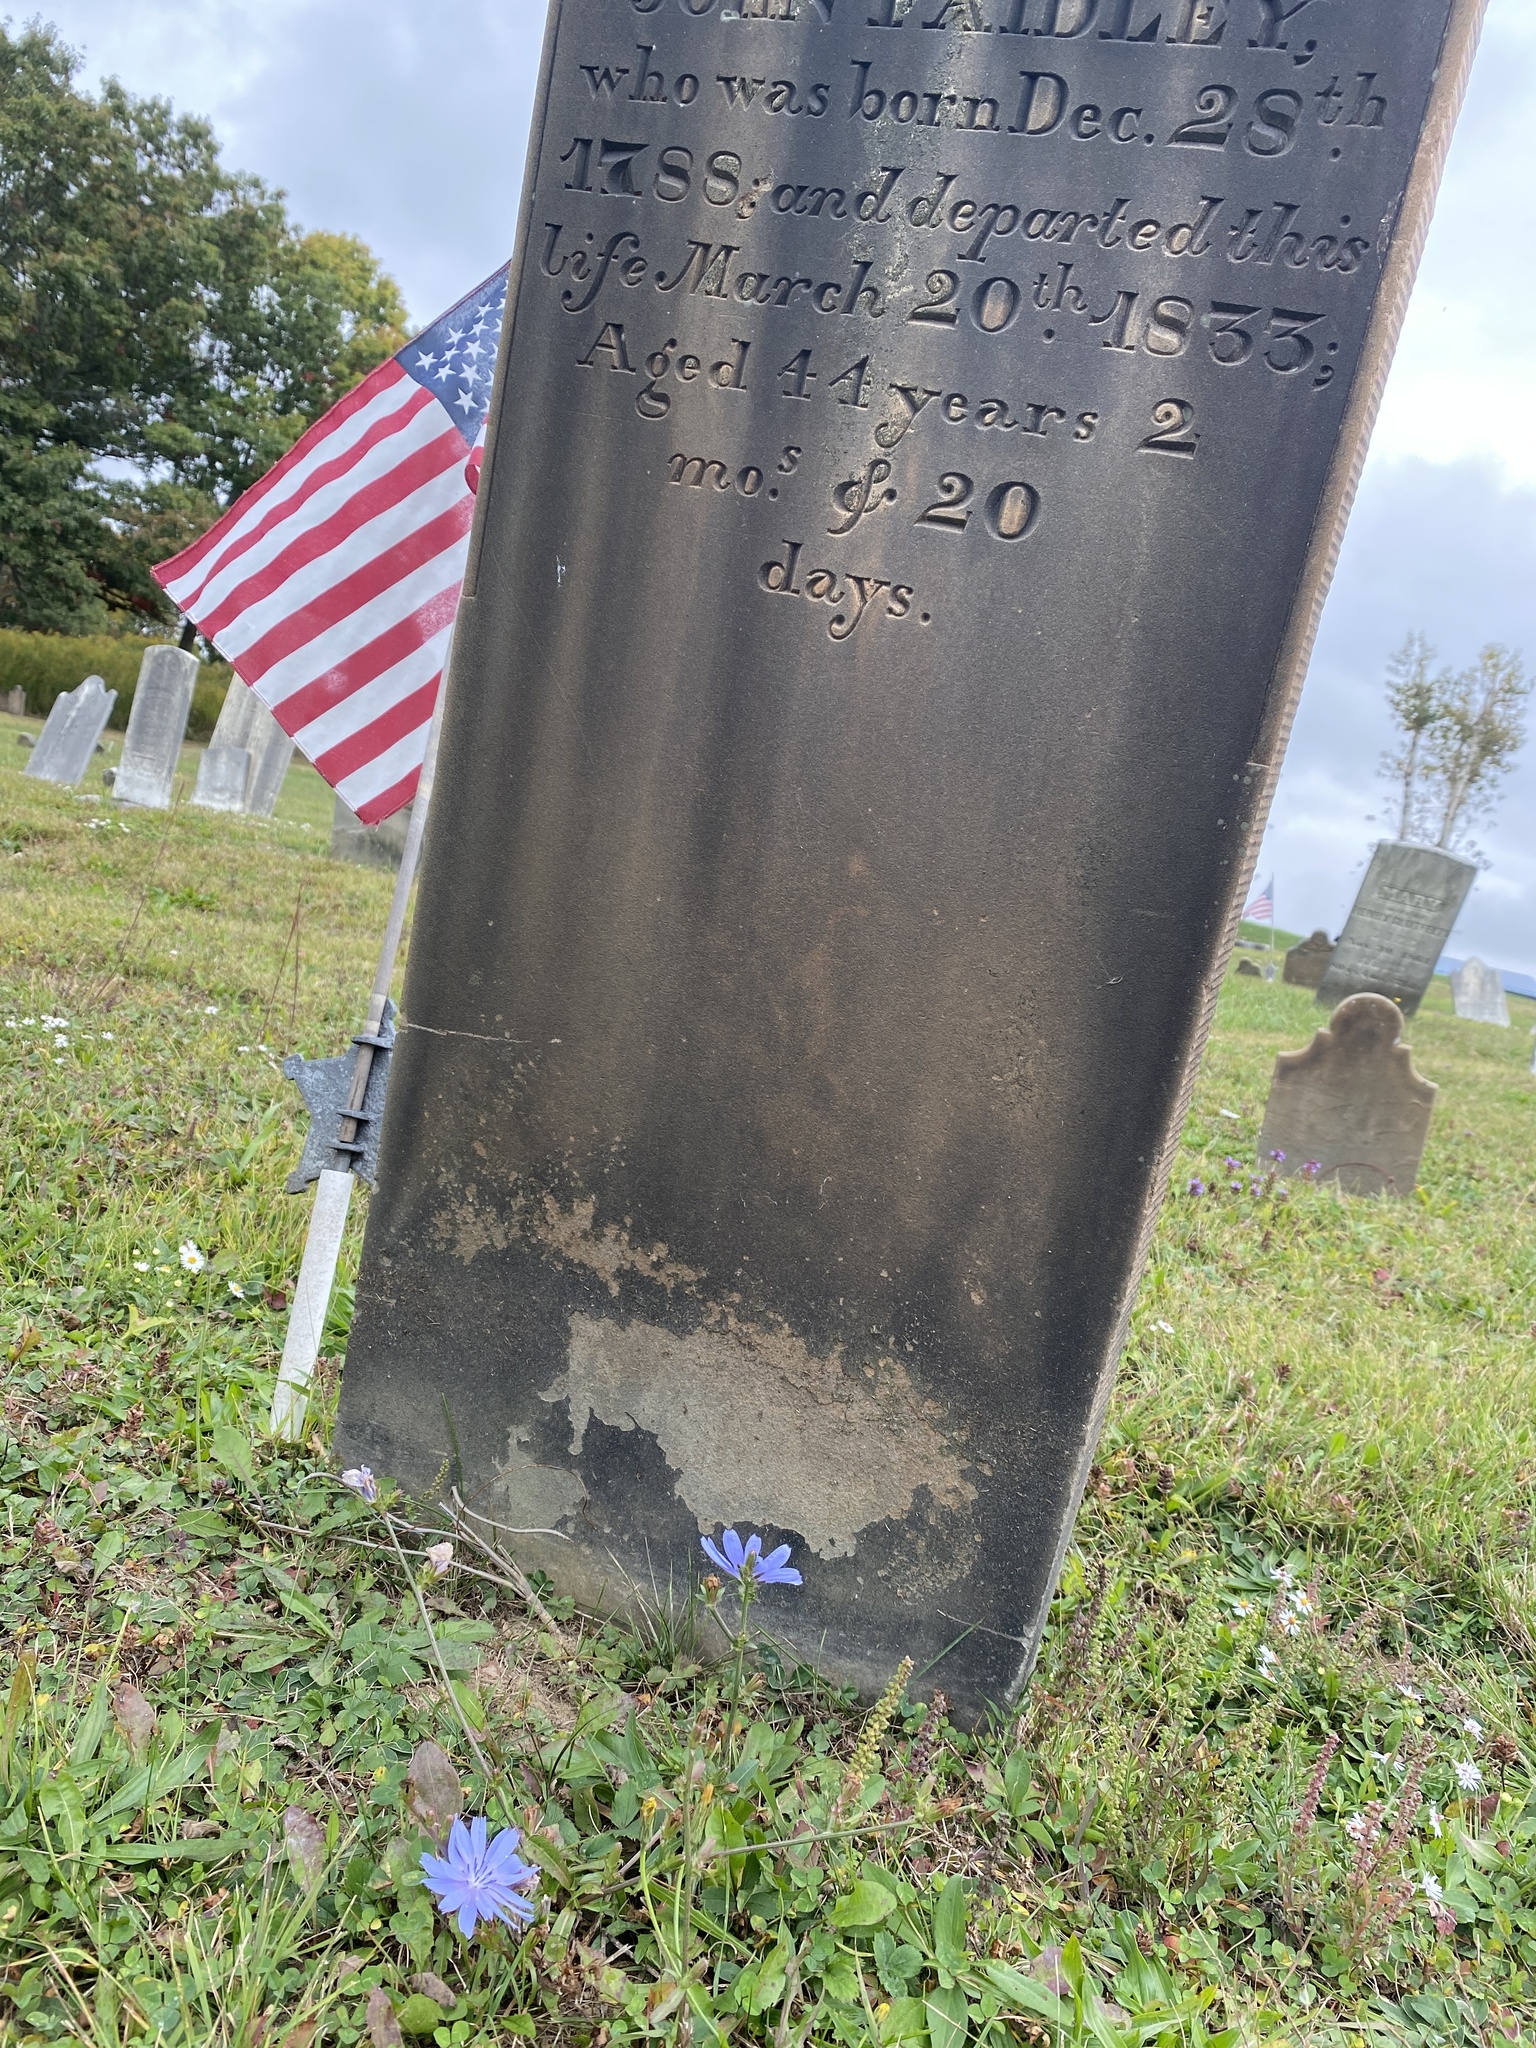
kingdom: Plantae
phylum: Tracheophyta
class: Magnoliopsida
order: Asterales
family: Asteraceae
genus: Cichorium
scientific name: Cichorium intybus
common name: Chicory
